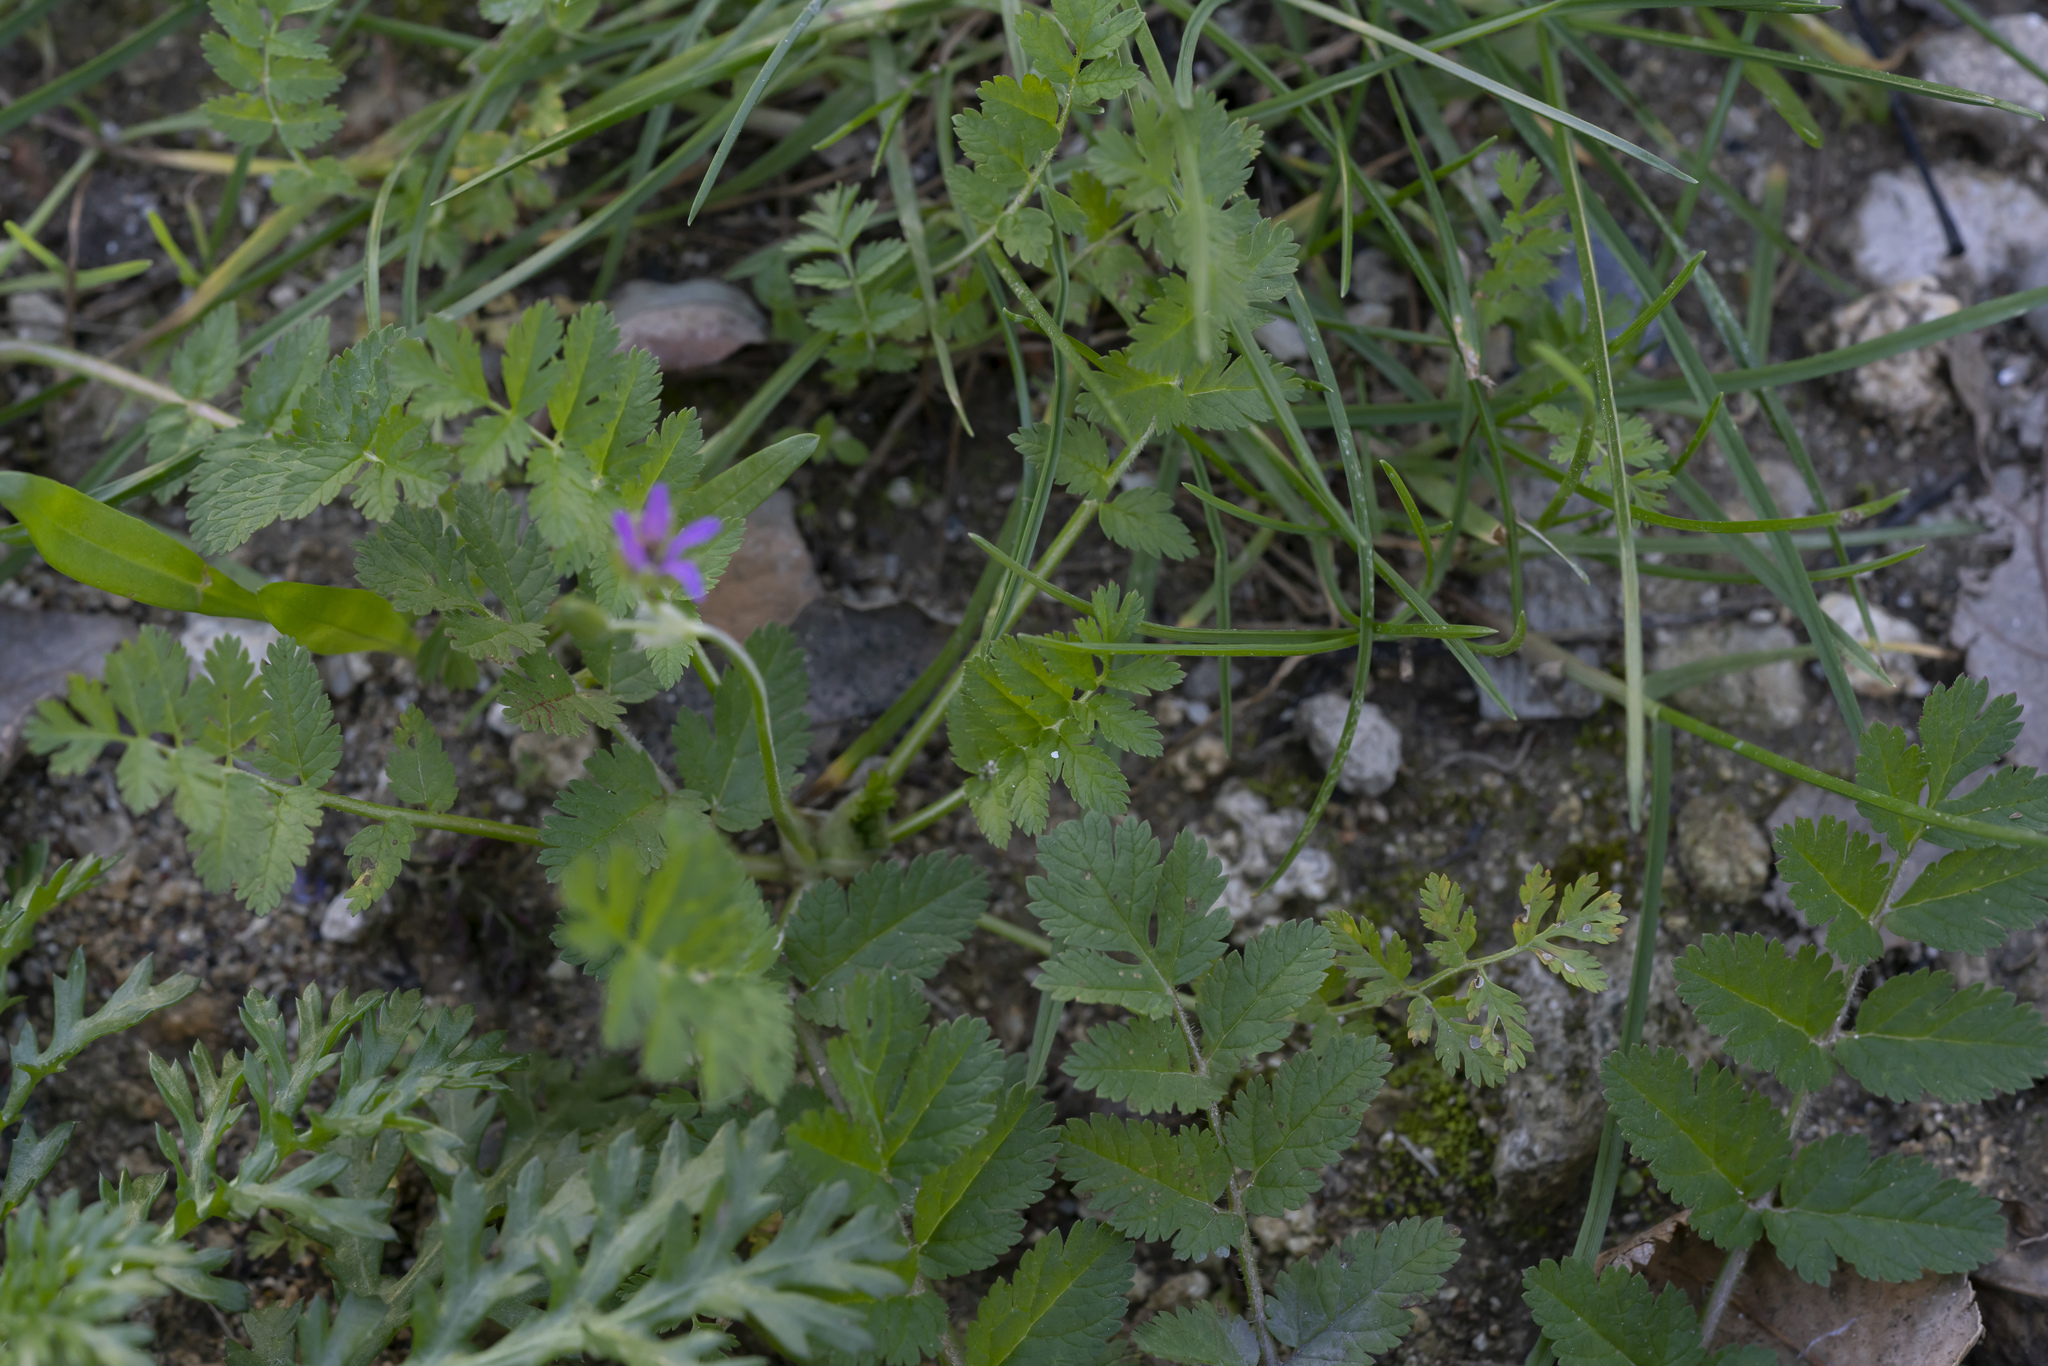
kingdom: Plantae
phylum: Tracheophyta
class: Magnoliopsida
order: Geraniales
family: Geraniaceae
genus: Erodium
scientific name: Erodium moschatum
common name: Musk stork's-bill
